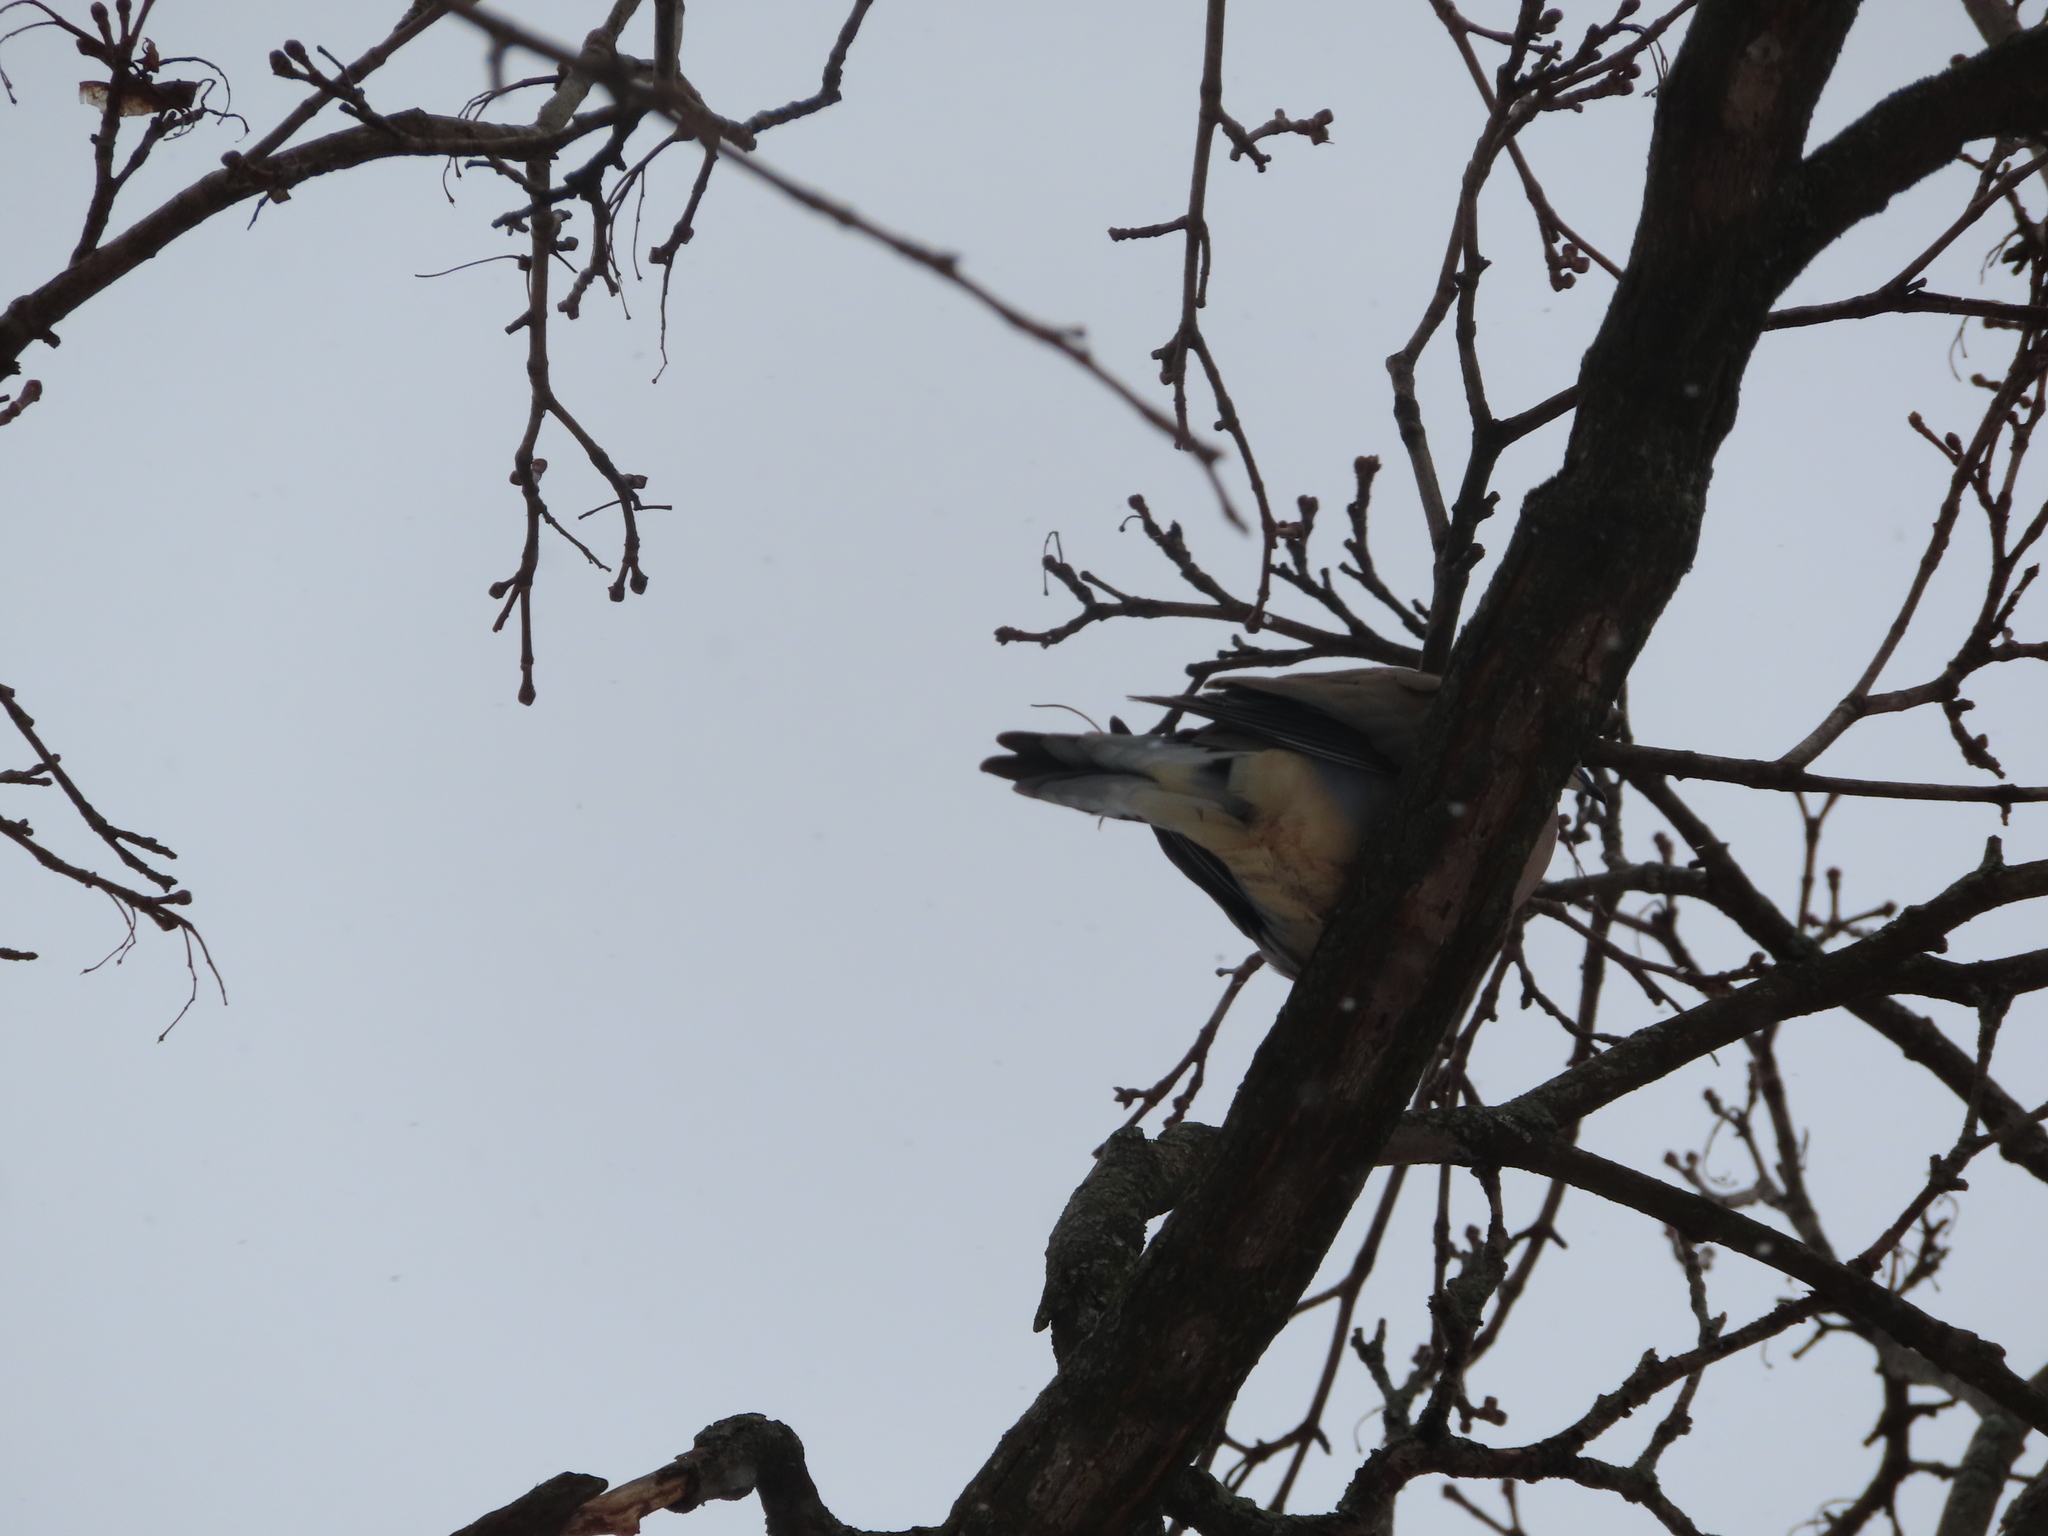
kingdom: Animalia
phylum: Chordata
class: Aves
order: Columbiformes
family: Columbidae
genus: Zenaida
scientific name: Zenaida macroura
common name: Mourning dove
